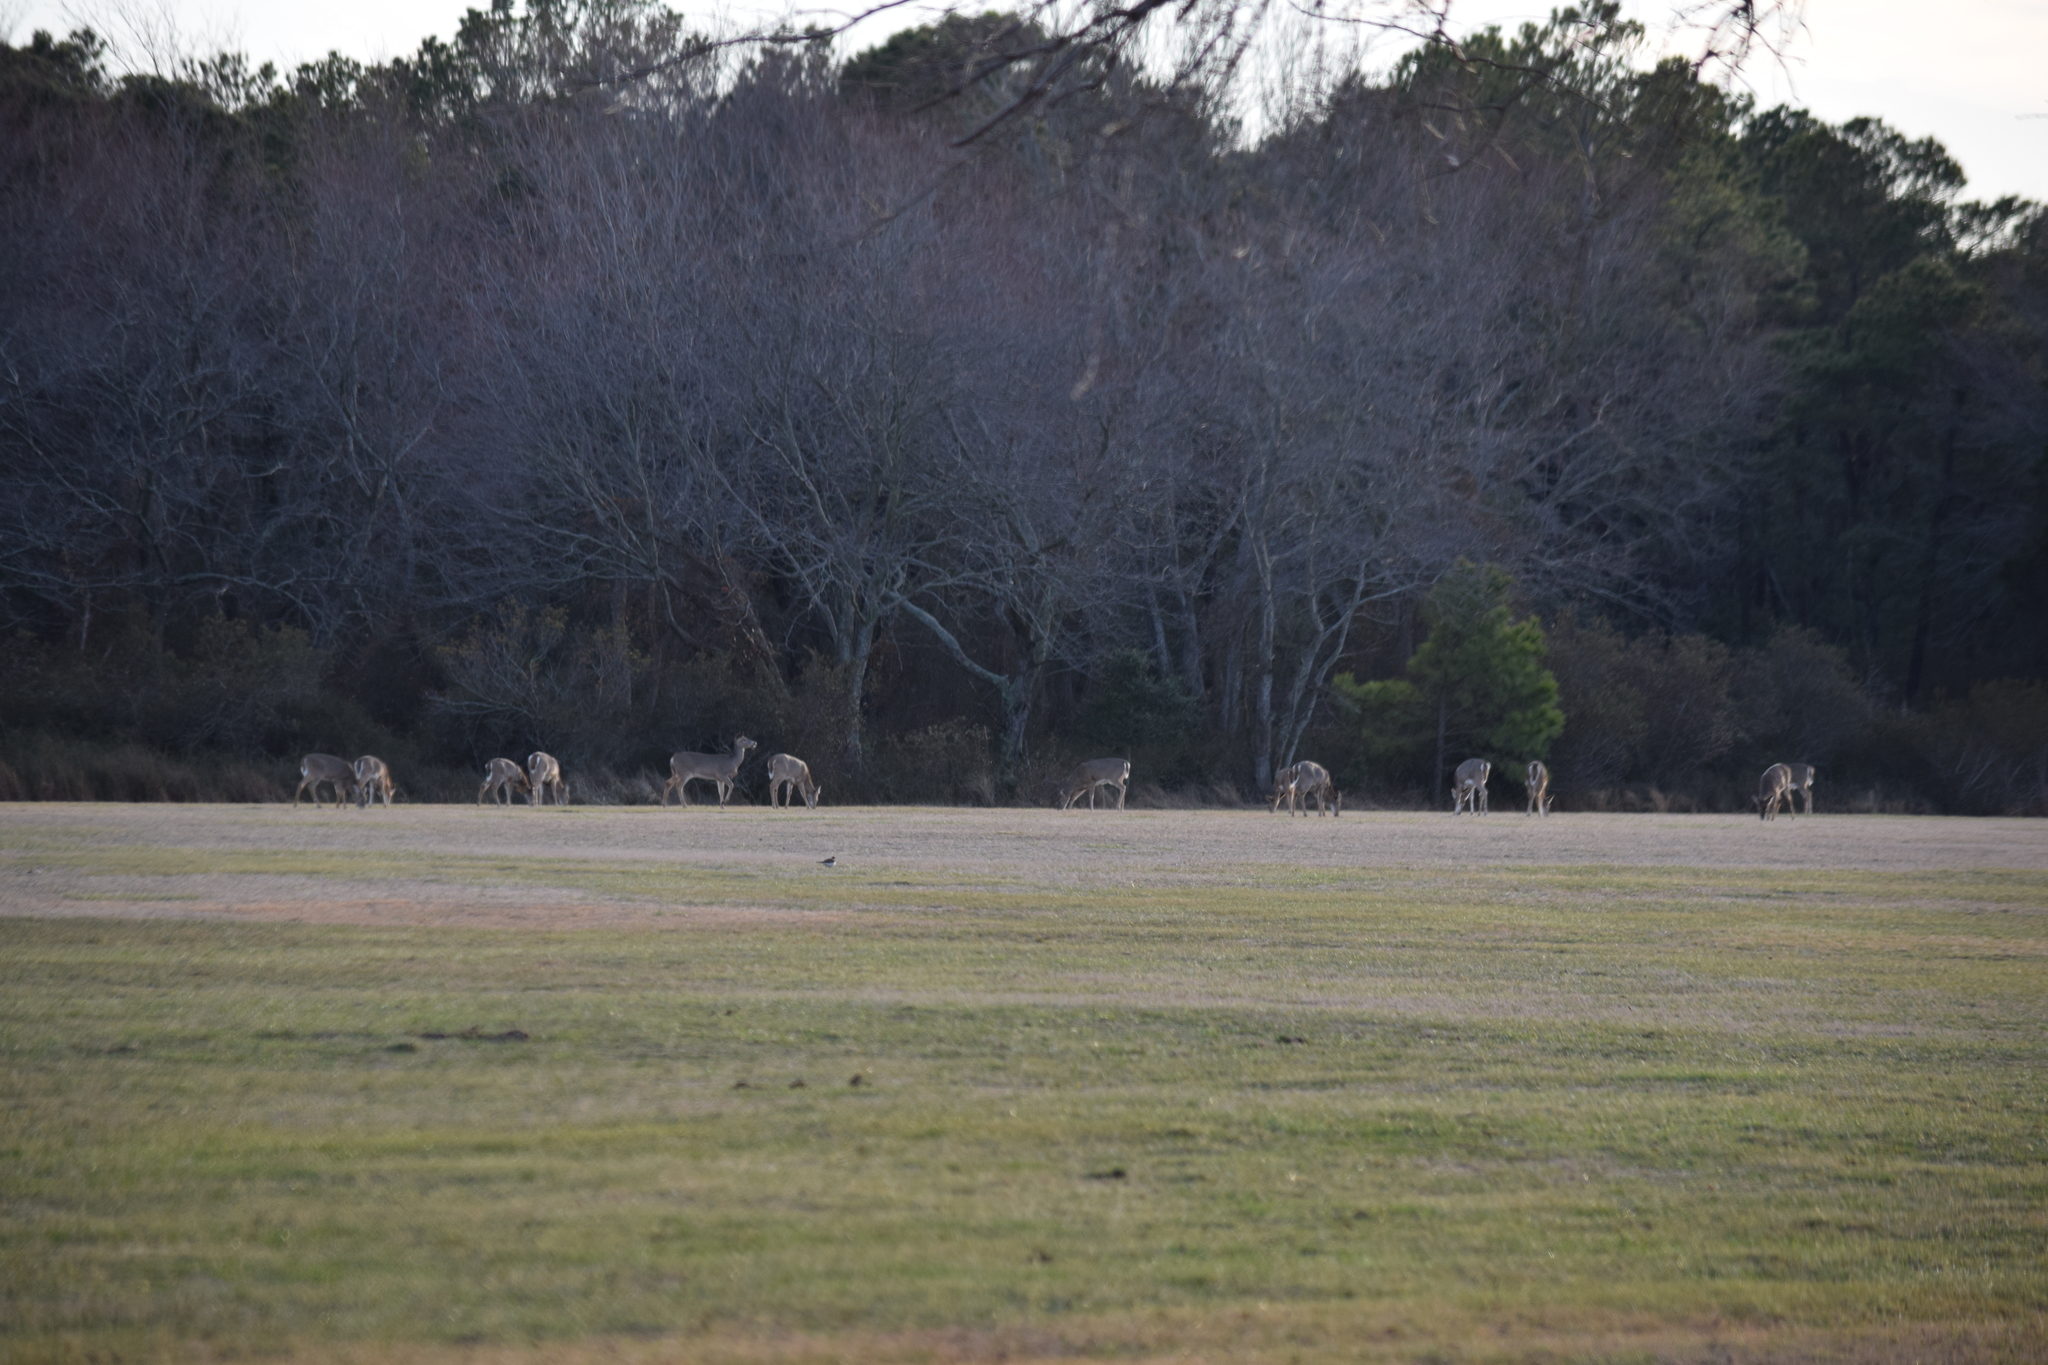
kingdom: Animalia
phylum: Chordata
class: Mammalia
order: Artiodactyla
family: Cervidae
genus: Odocoileus
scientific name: Odocoileus virginianus
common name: White-tailed deer
